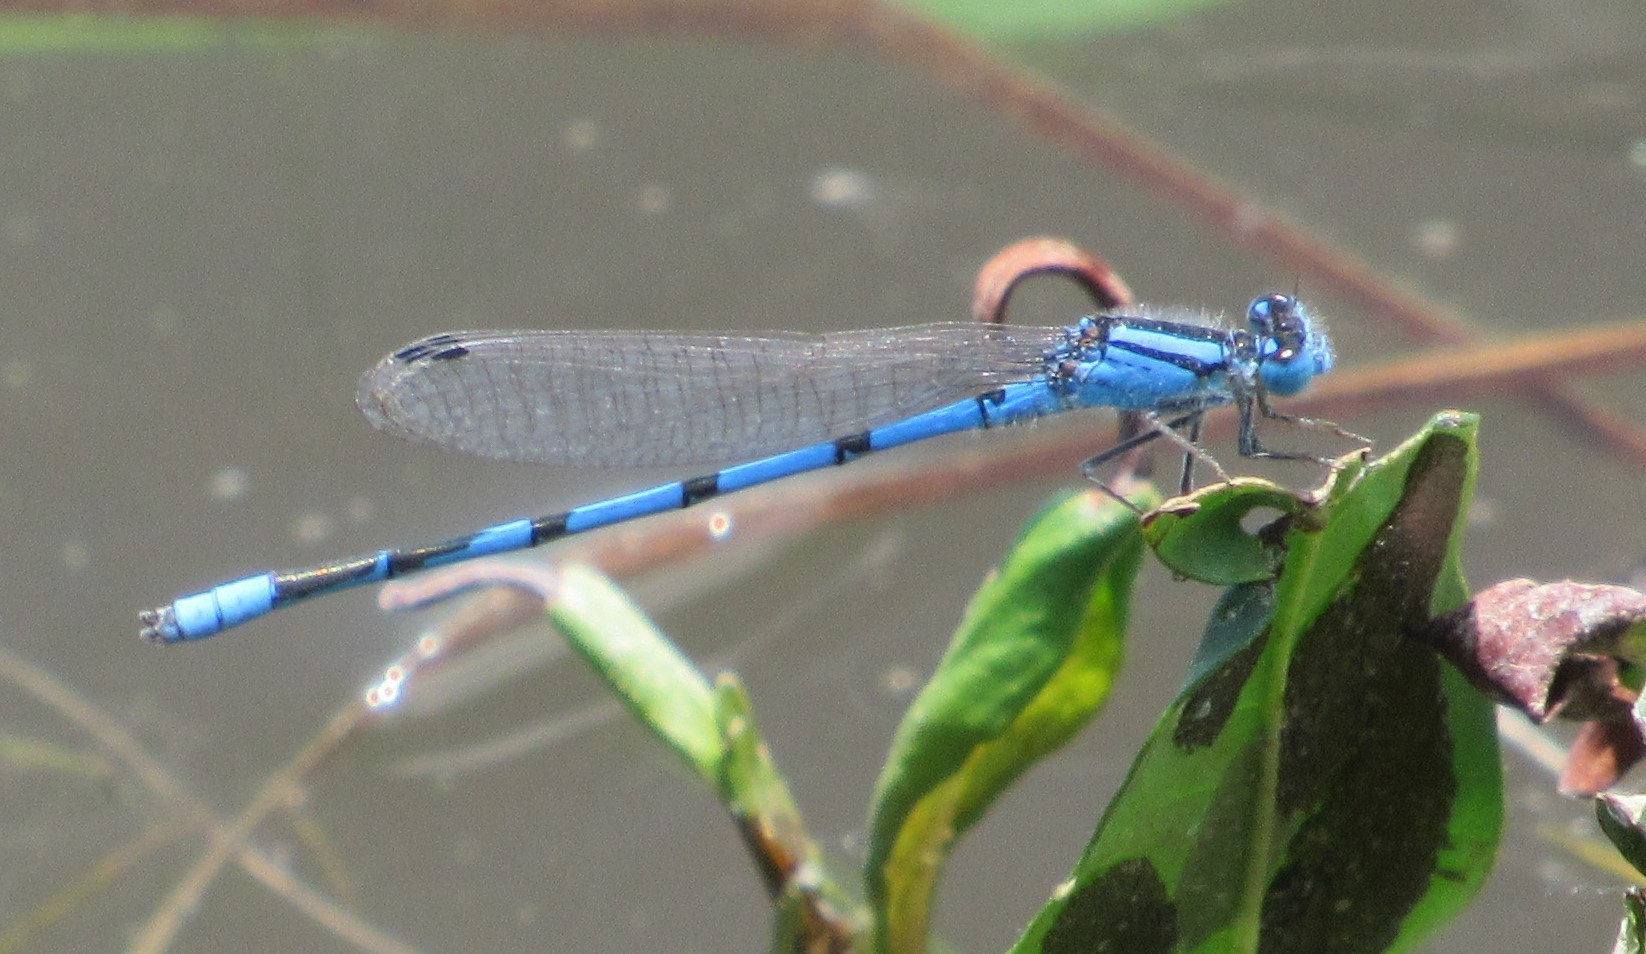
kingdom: Animalia
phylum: Arthropoda
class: Insecta
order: Odonata
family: Coenagrionidae
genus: Enallagma
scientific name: Enallagma civile
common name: Damselfly
